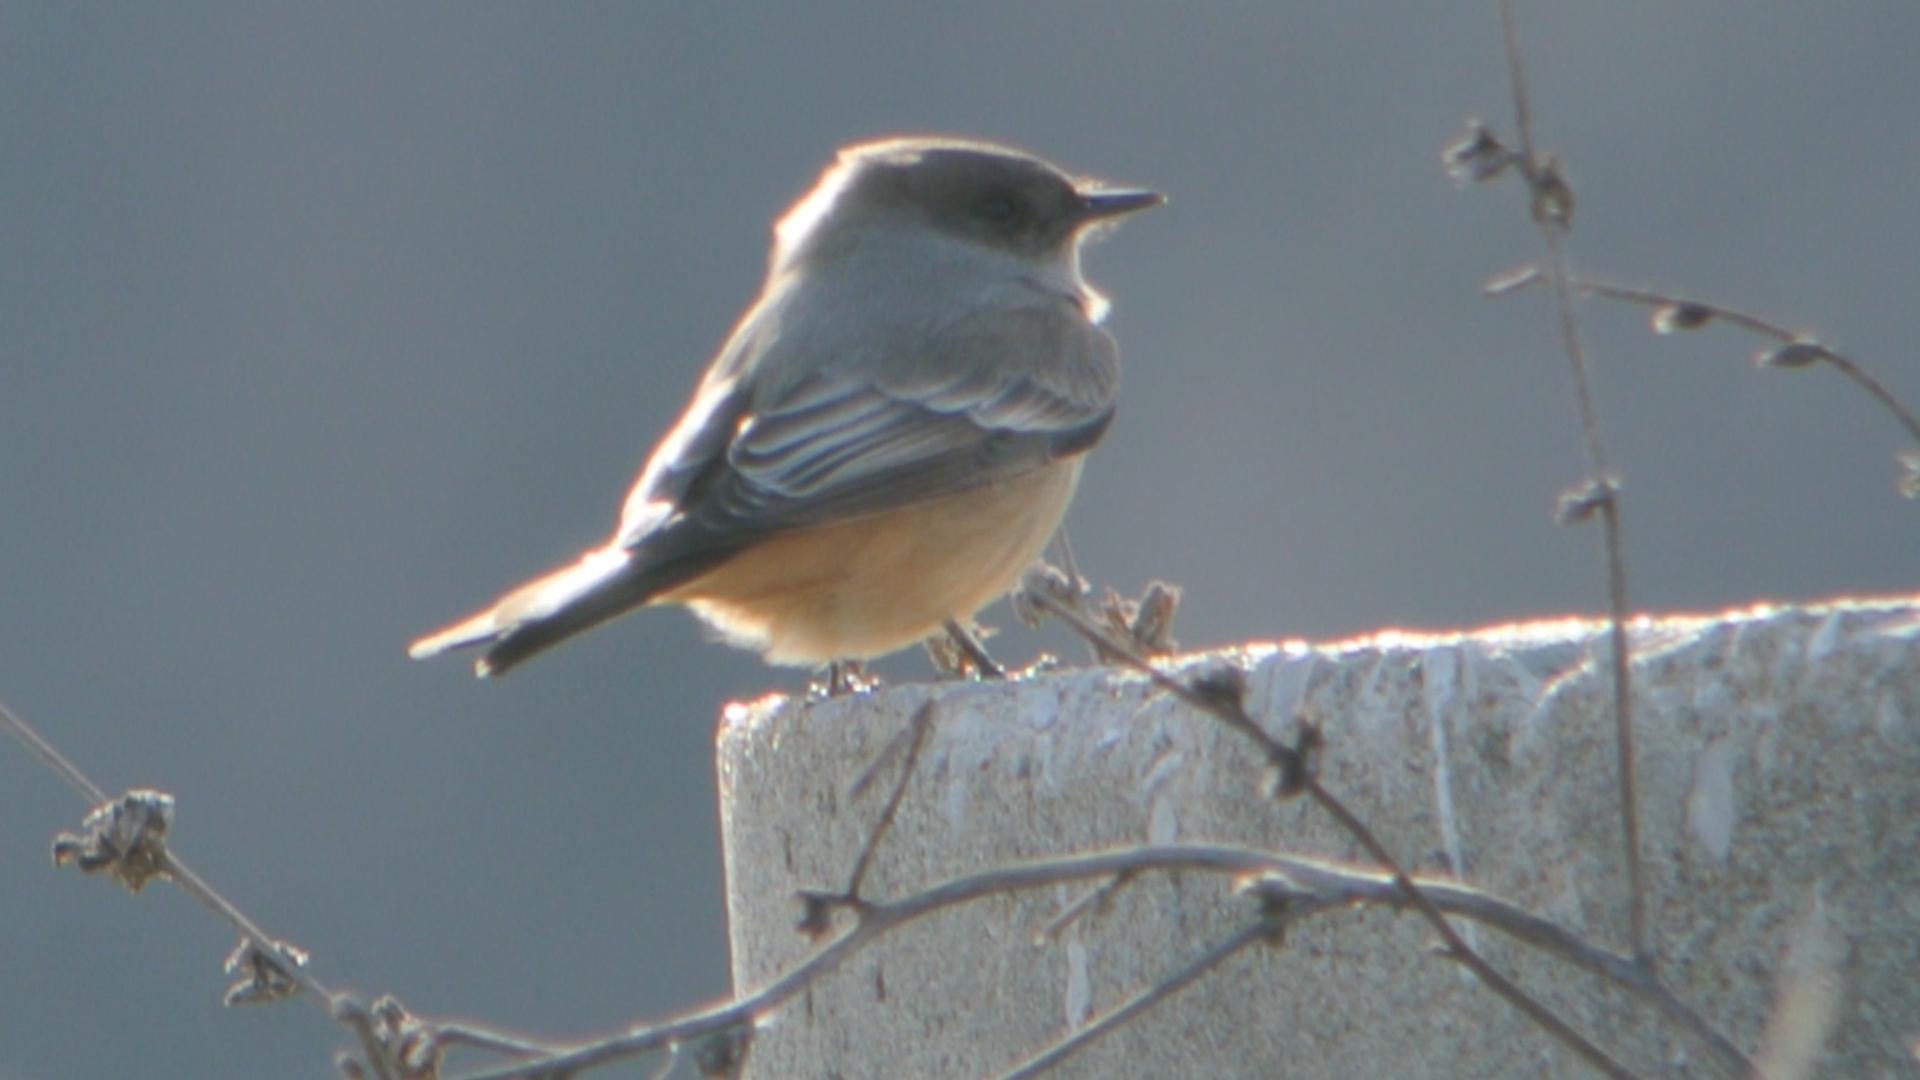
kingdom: Animalia
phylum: Chordata
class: Aves
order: Passeriformes
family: Tyrannidae
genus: Sayornis
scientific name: Sayornis saya
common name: Say's phoebe
